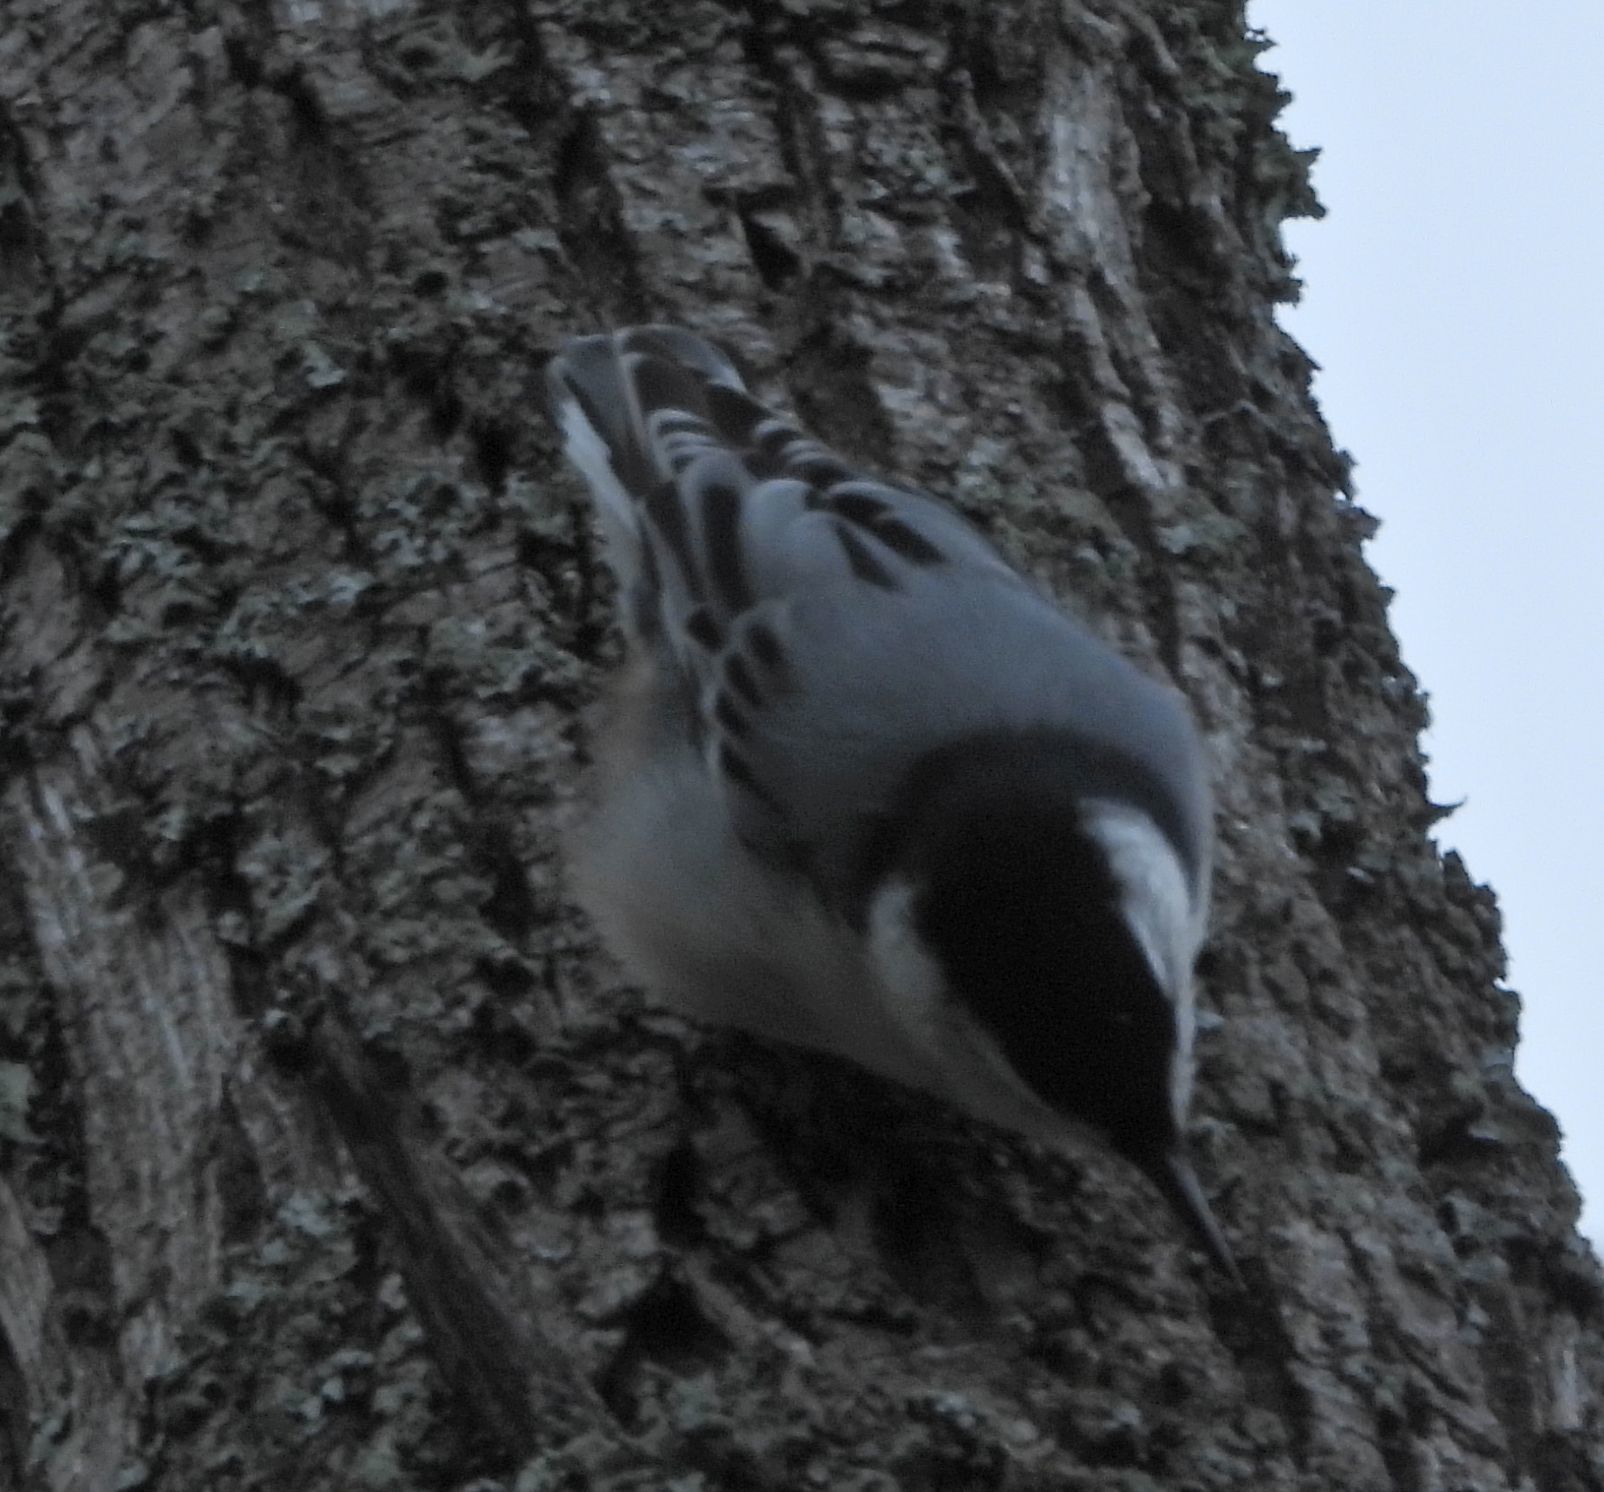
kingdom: Animalia
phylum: Chordata
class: Aves
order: Passeriformes
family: Sittidae
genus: Sitta
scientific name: Sitta carolinensis
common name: White-breasted nuthatch
